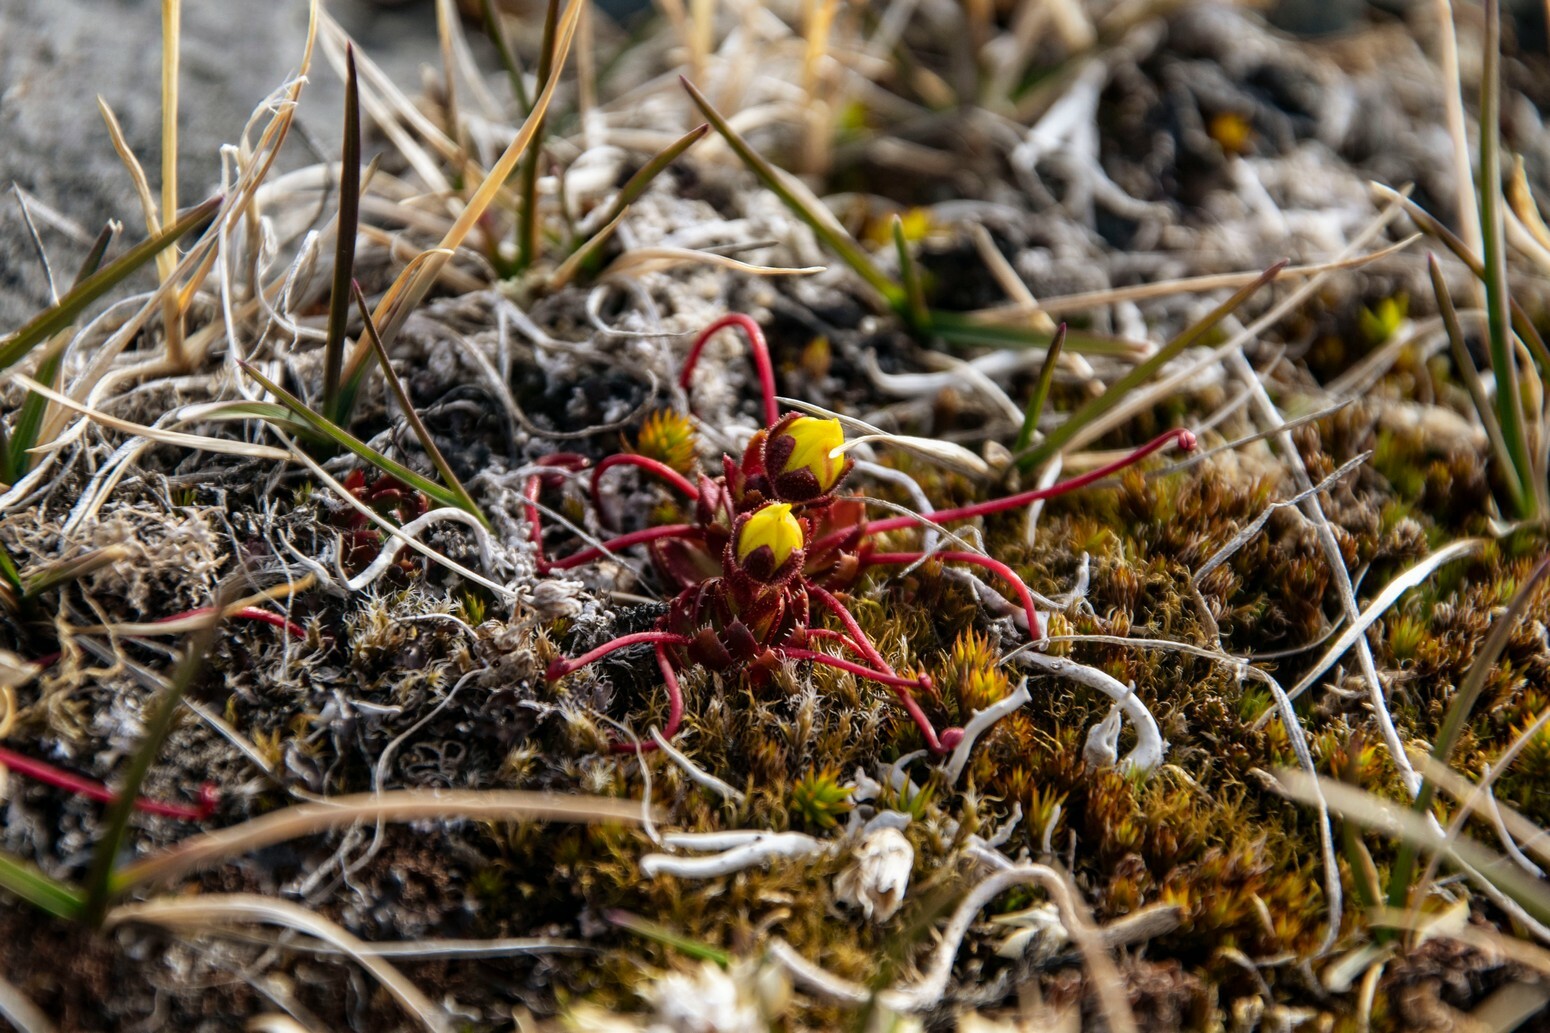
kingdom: Plantae
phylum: Tracheophyta
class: Magnoliopsida
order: Saxifragales
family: Saxifragaceae
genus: Saxifraga
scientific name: Saxifraga platysepala
